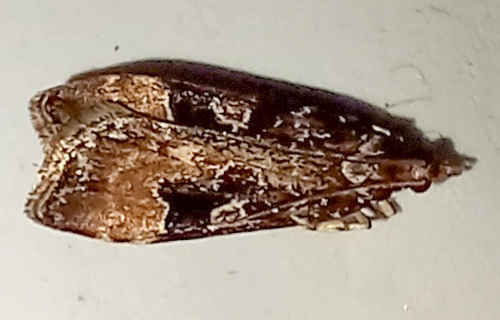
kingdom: Animalia
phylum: Arthropoda
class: Insecta
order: Lepidoptera
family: Crambidae
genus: Scoparia
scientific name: Scoparia ustimacula
